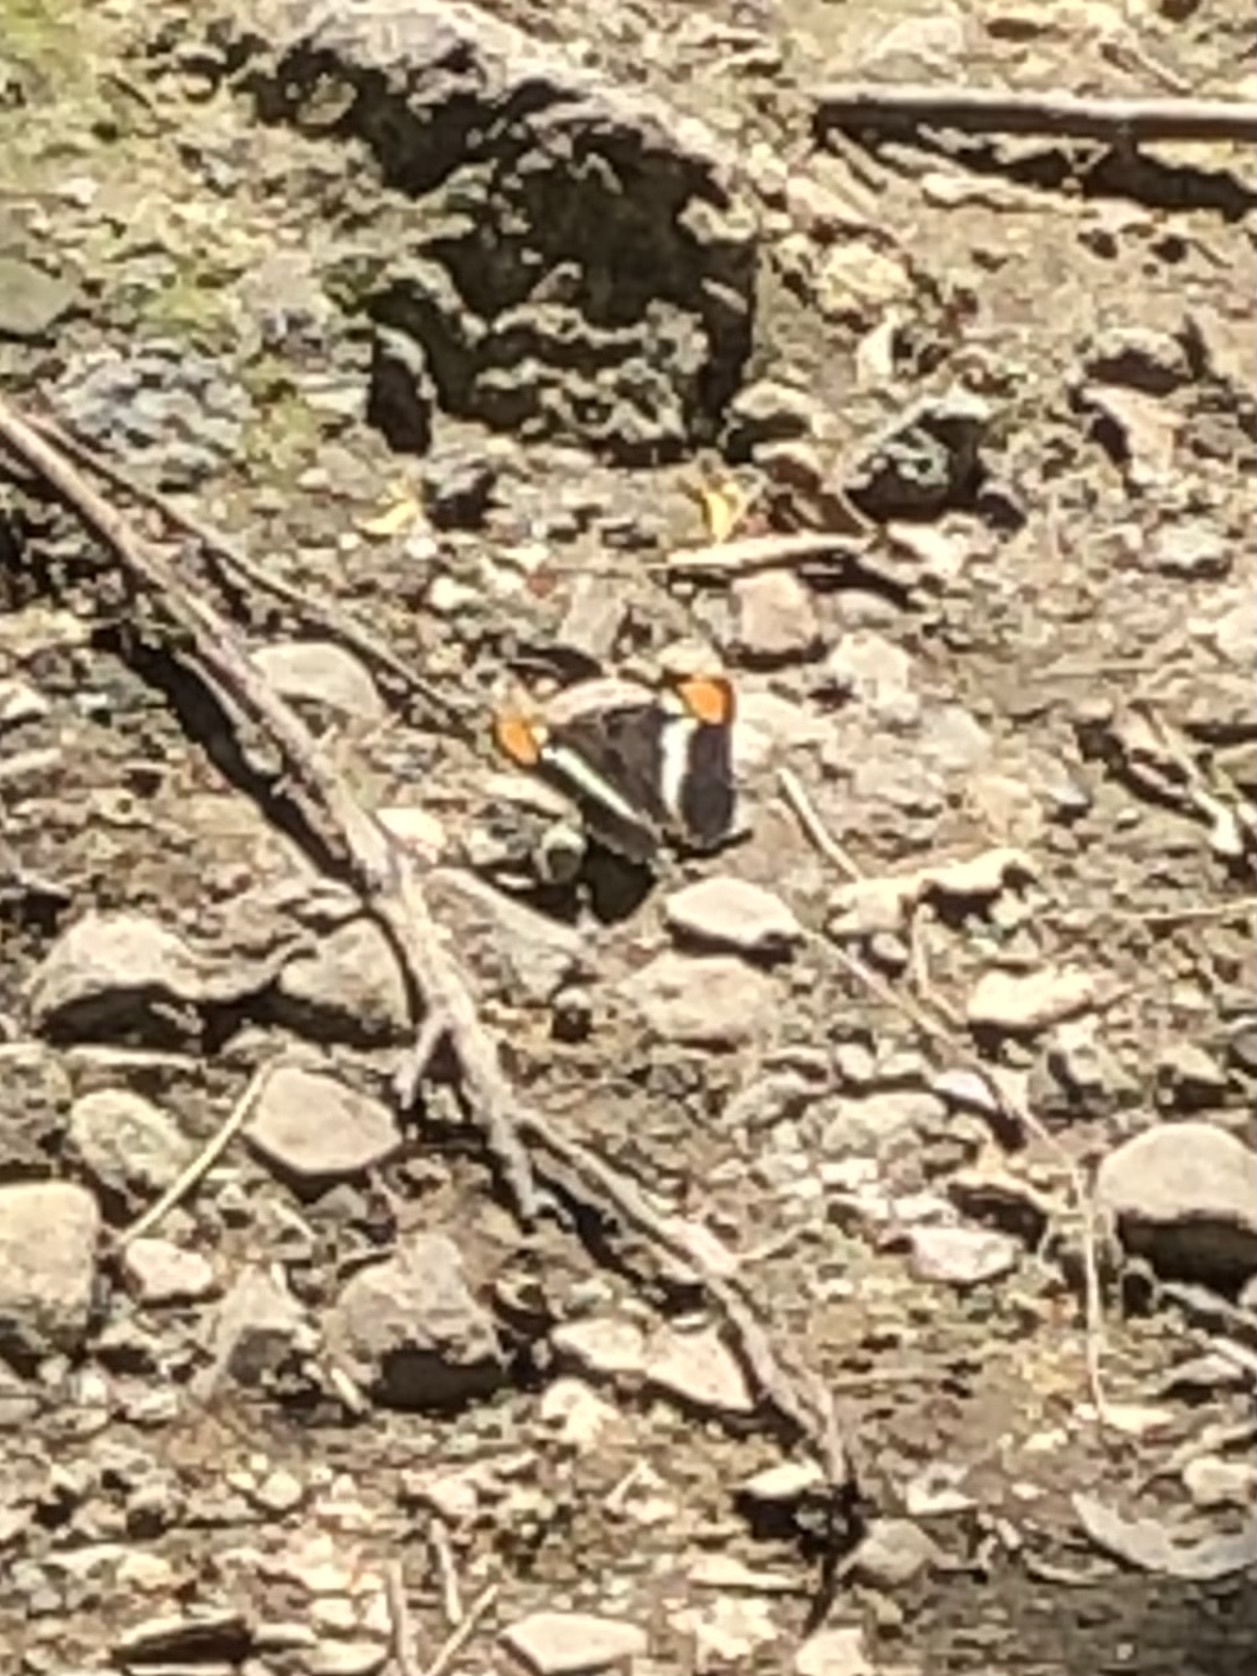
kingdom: Animalia
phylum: Arthropoda
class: Insecta
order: Lepidoptera
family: Nymphalidae
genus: Limenitis
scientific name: Limenitis bredowii
